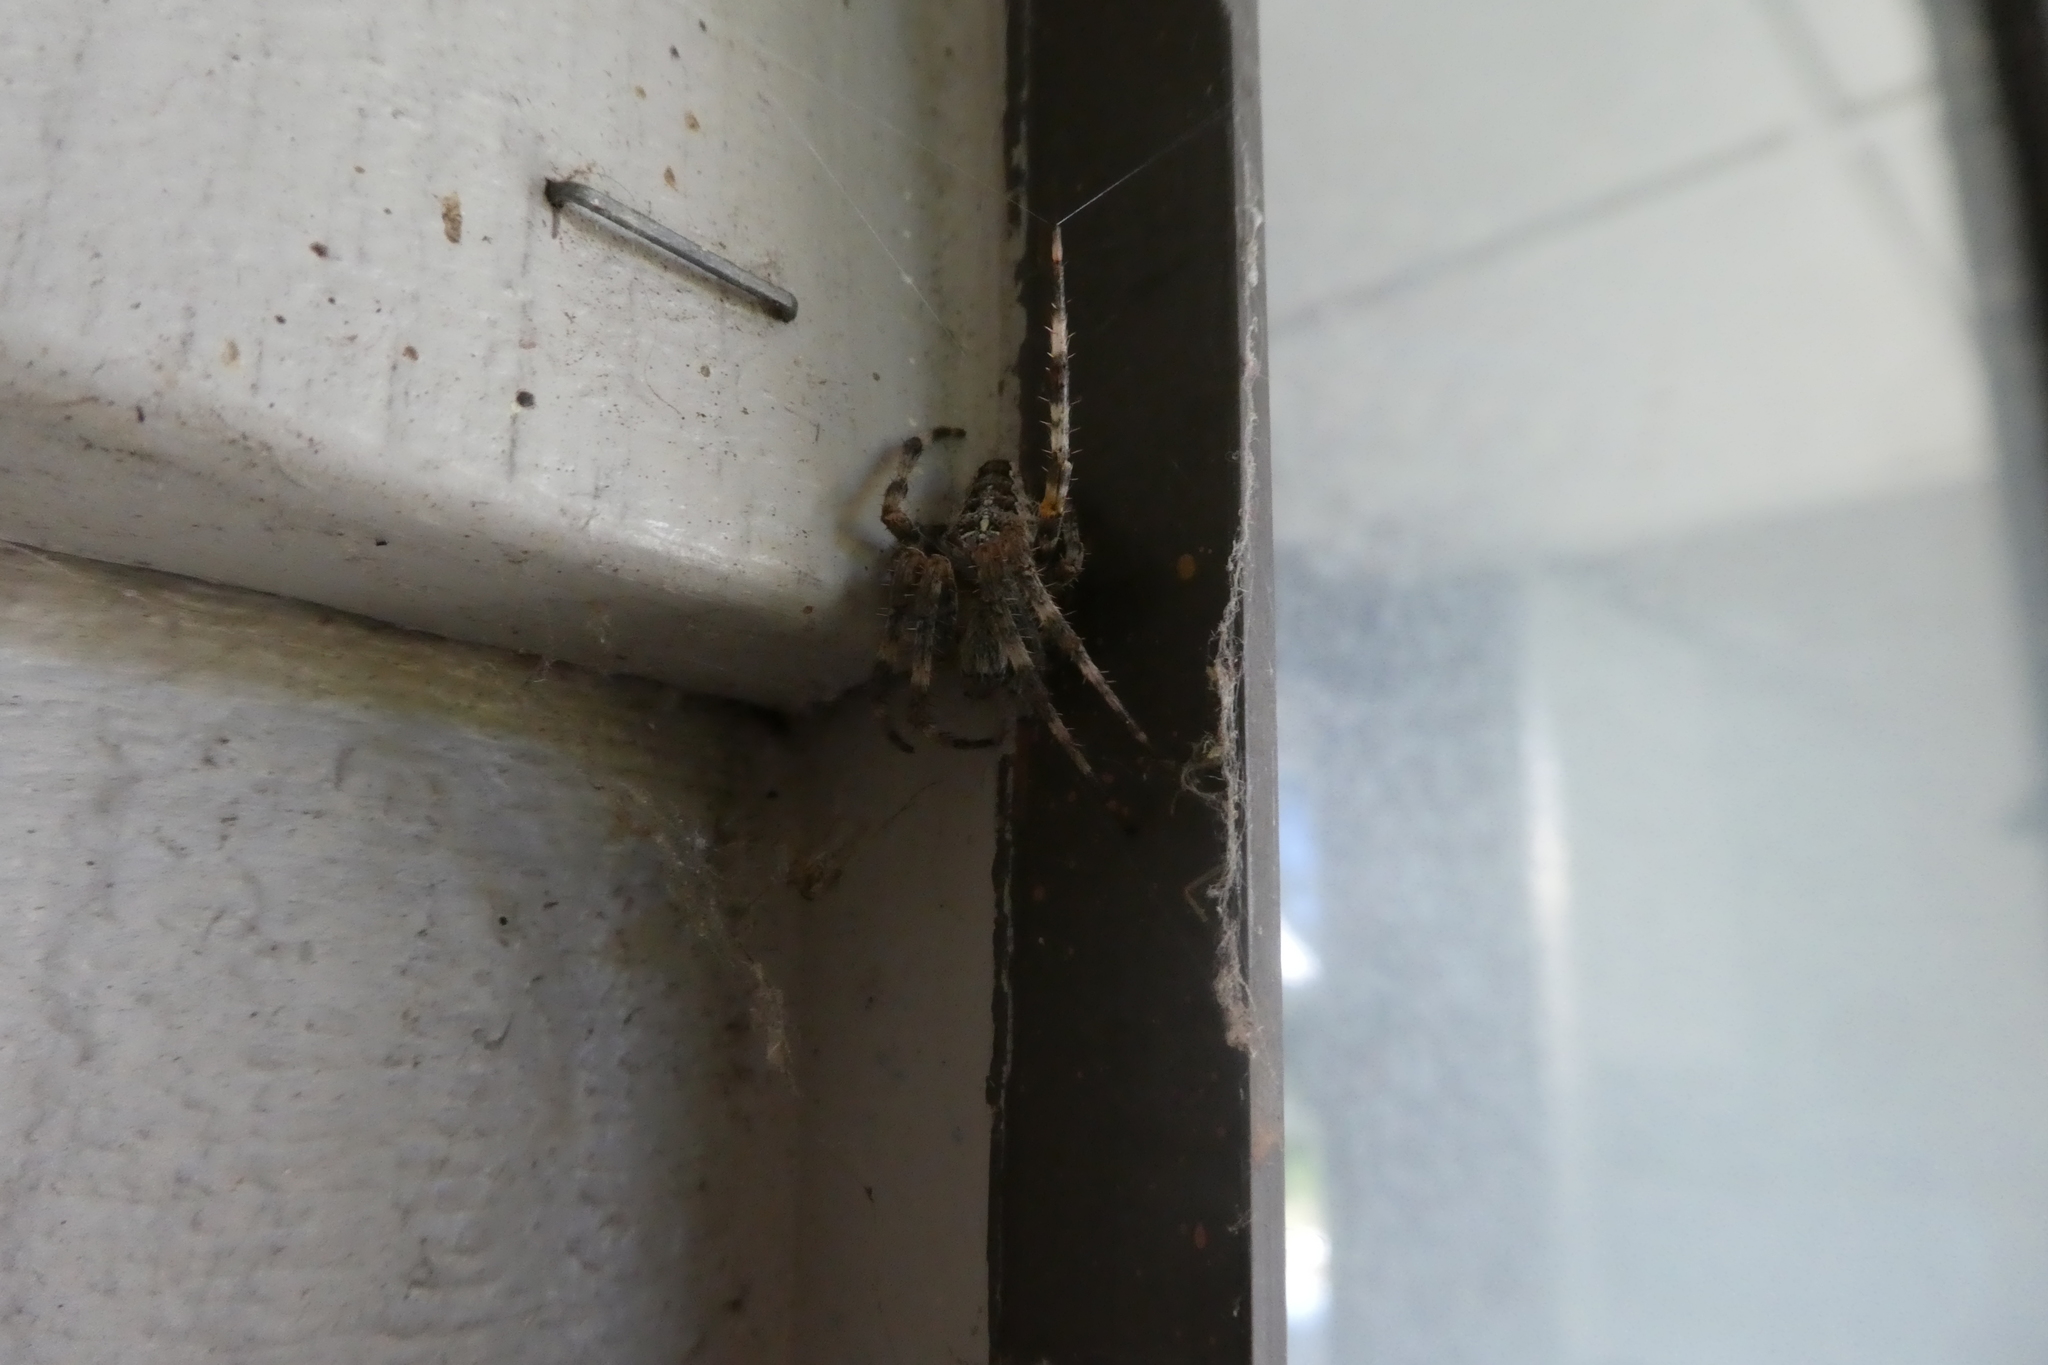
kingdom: Animalia
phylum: Arthropoda
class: Arachnida
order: Araneae
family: Araneidae
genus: Araneus
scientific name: Araneus diadematus
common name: Cross orbweaver
